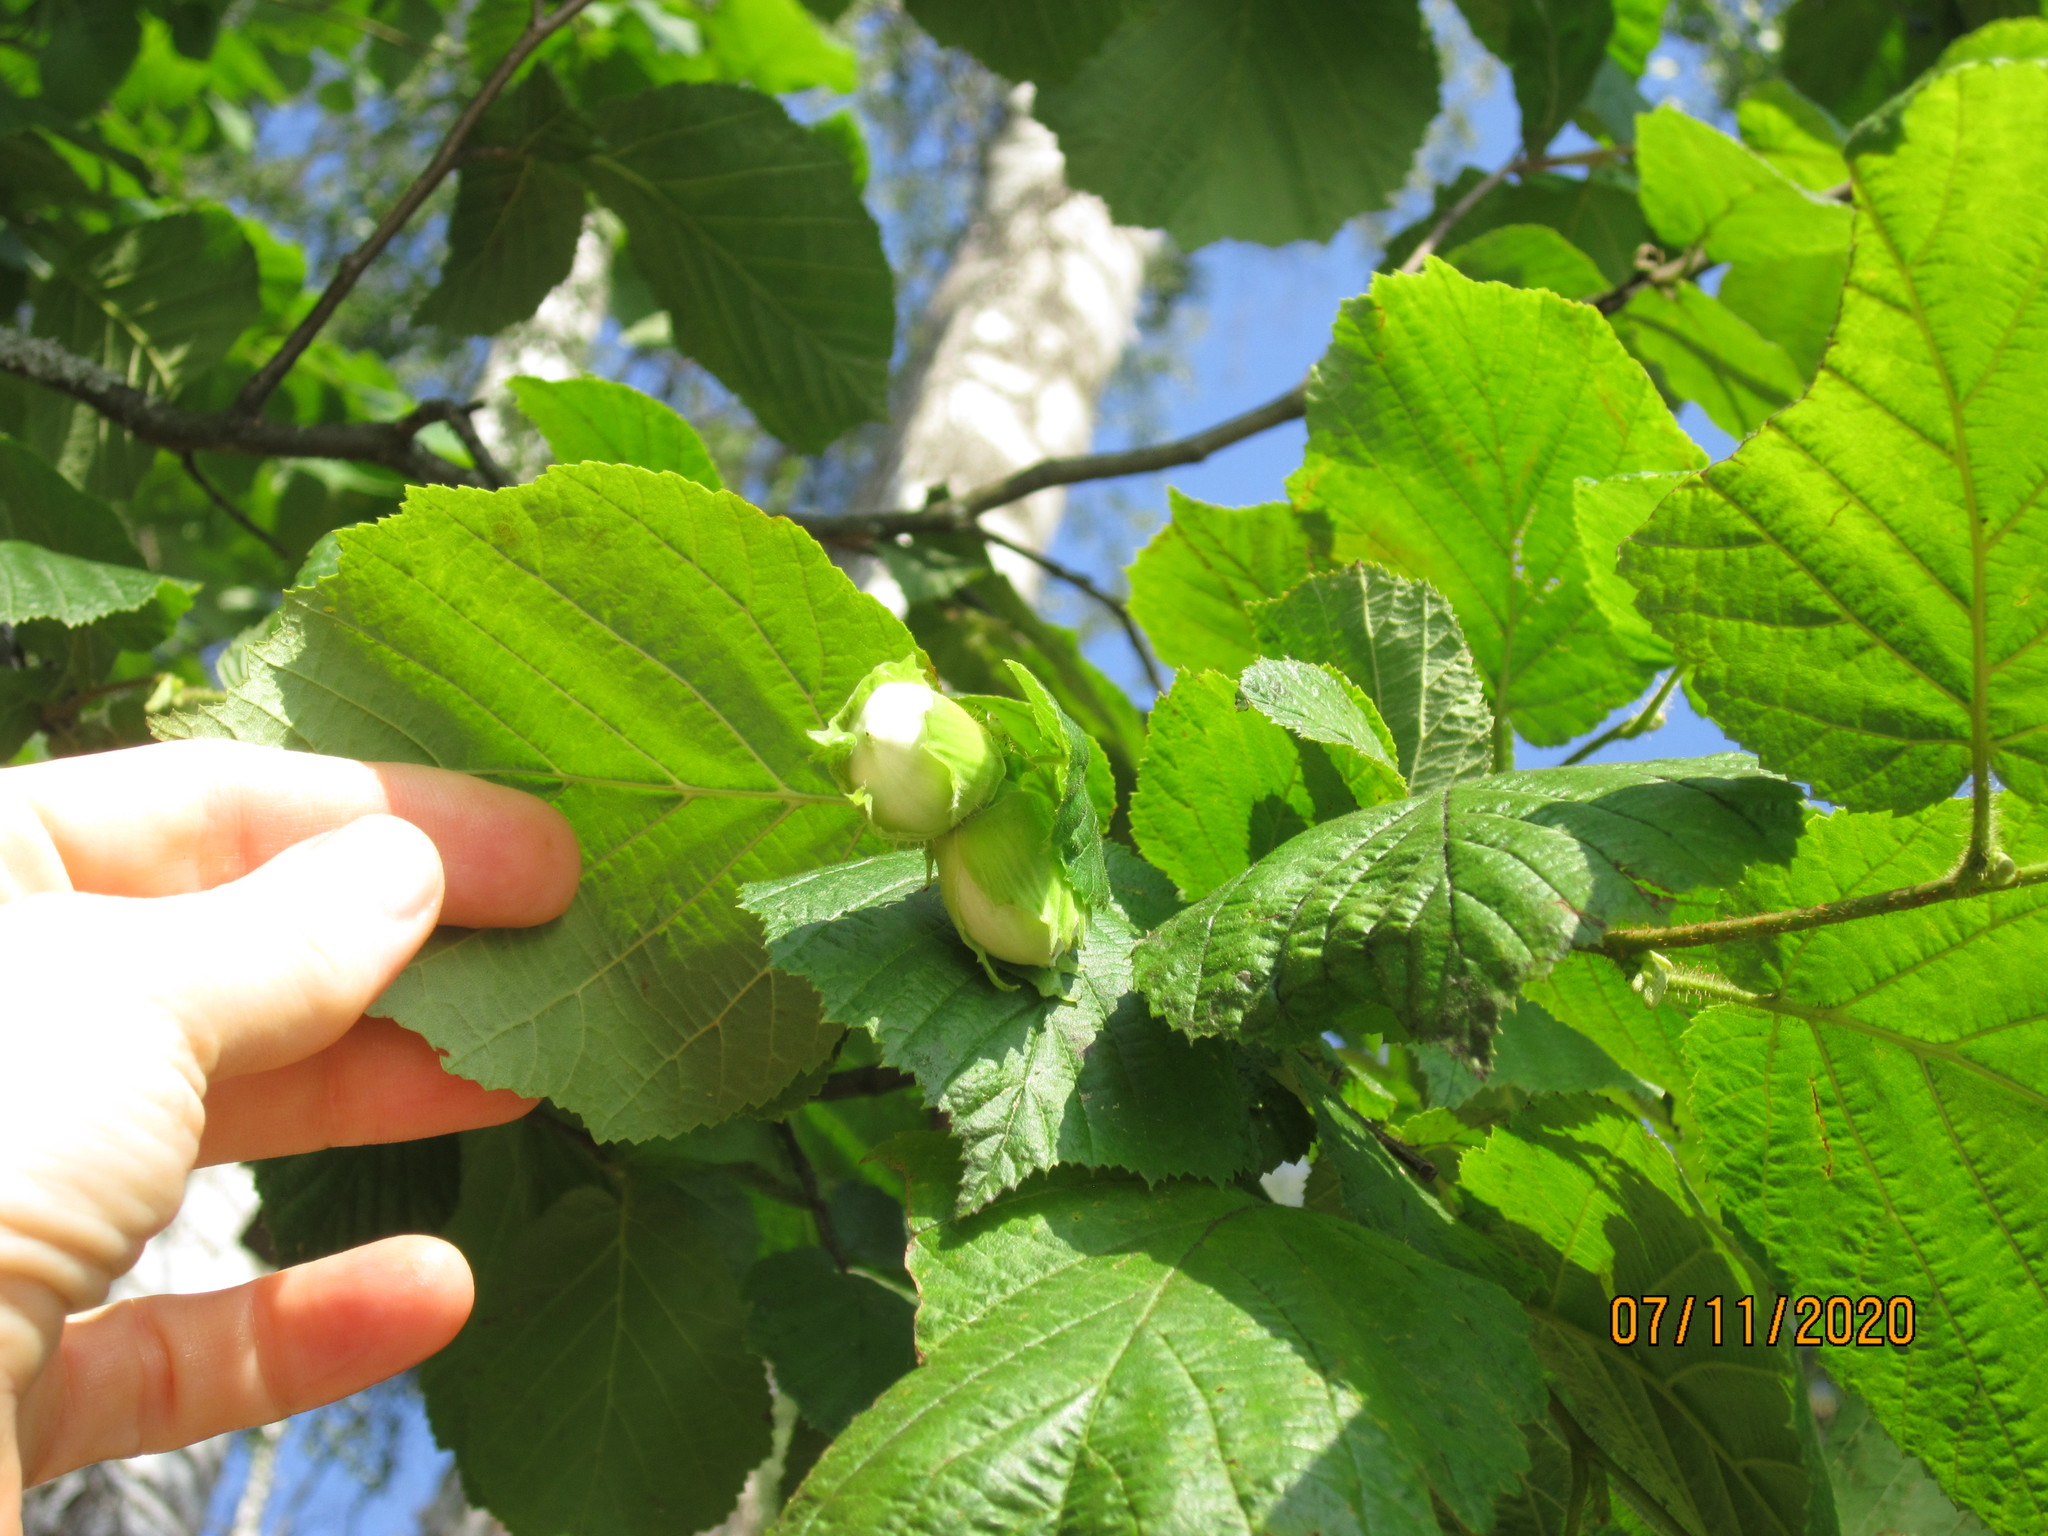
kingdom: Plantae
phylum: Tracheophyta
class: Magnoliopsida
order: Fagales
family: Betulaceae
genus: Corylus
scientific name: Corylus avellana
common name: European hazel
